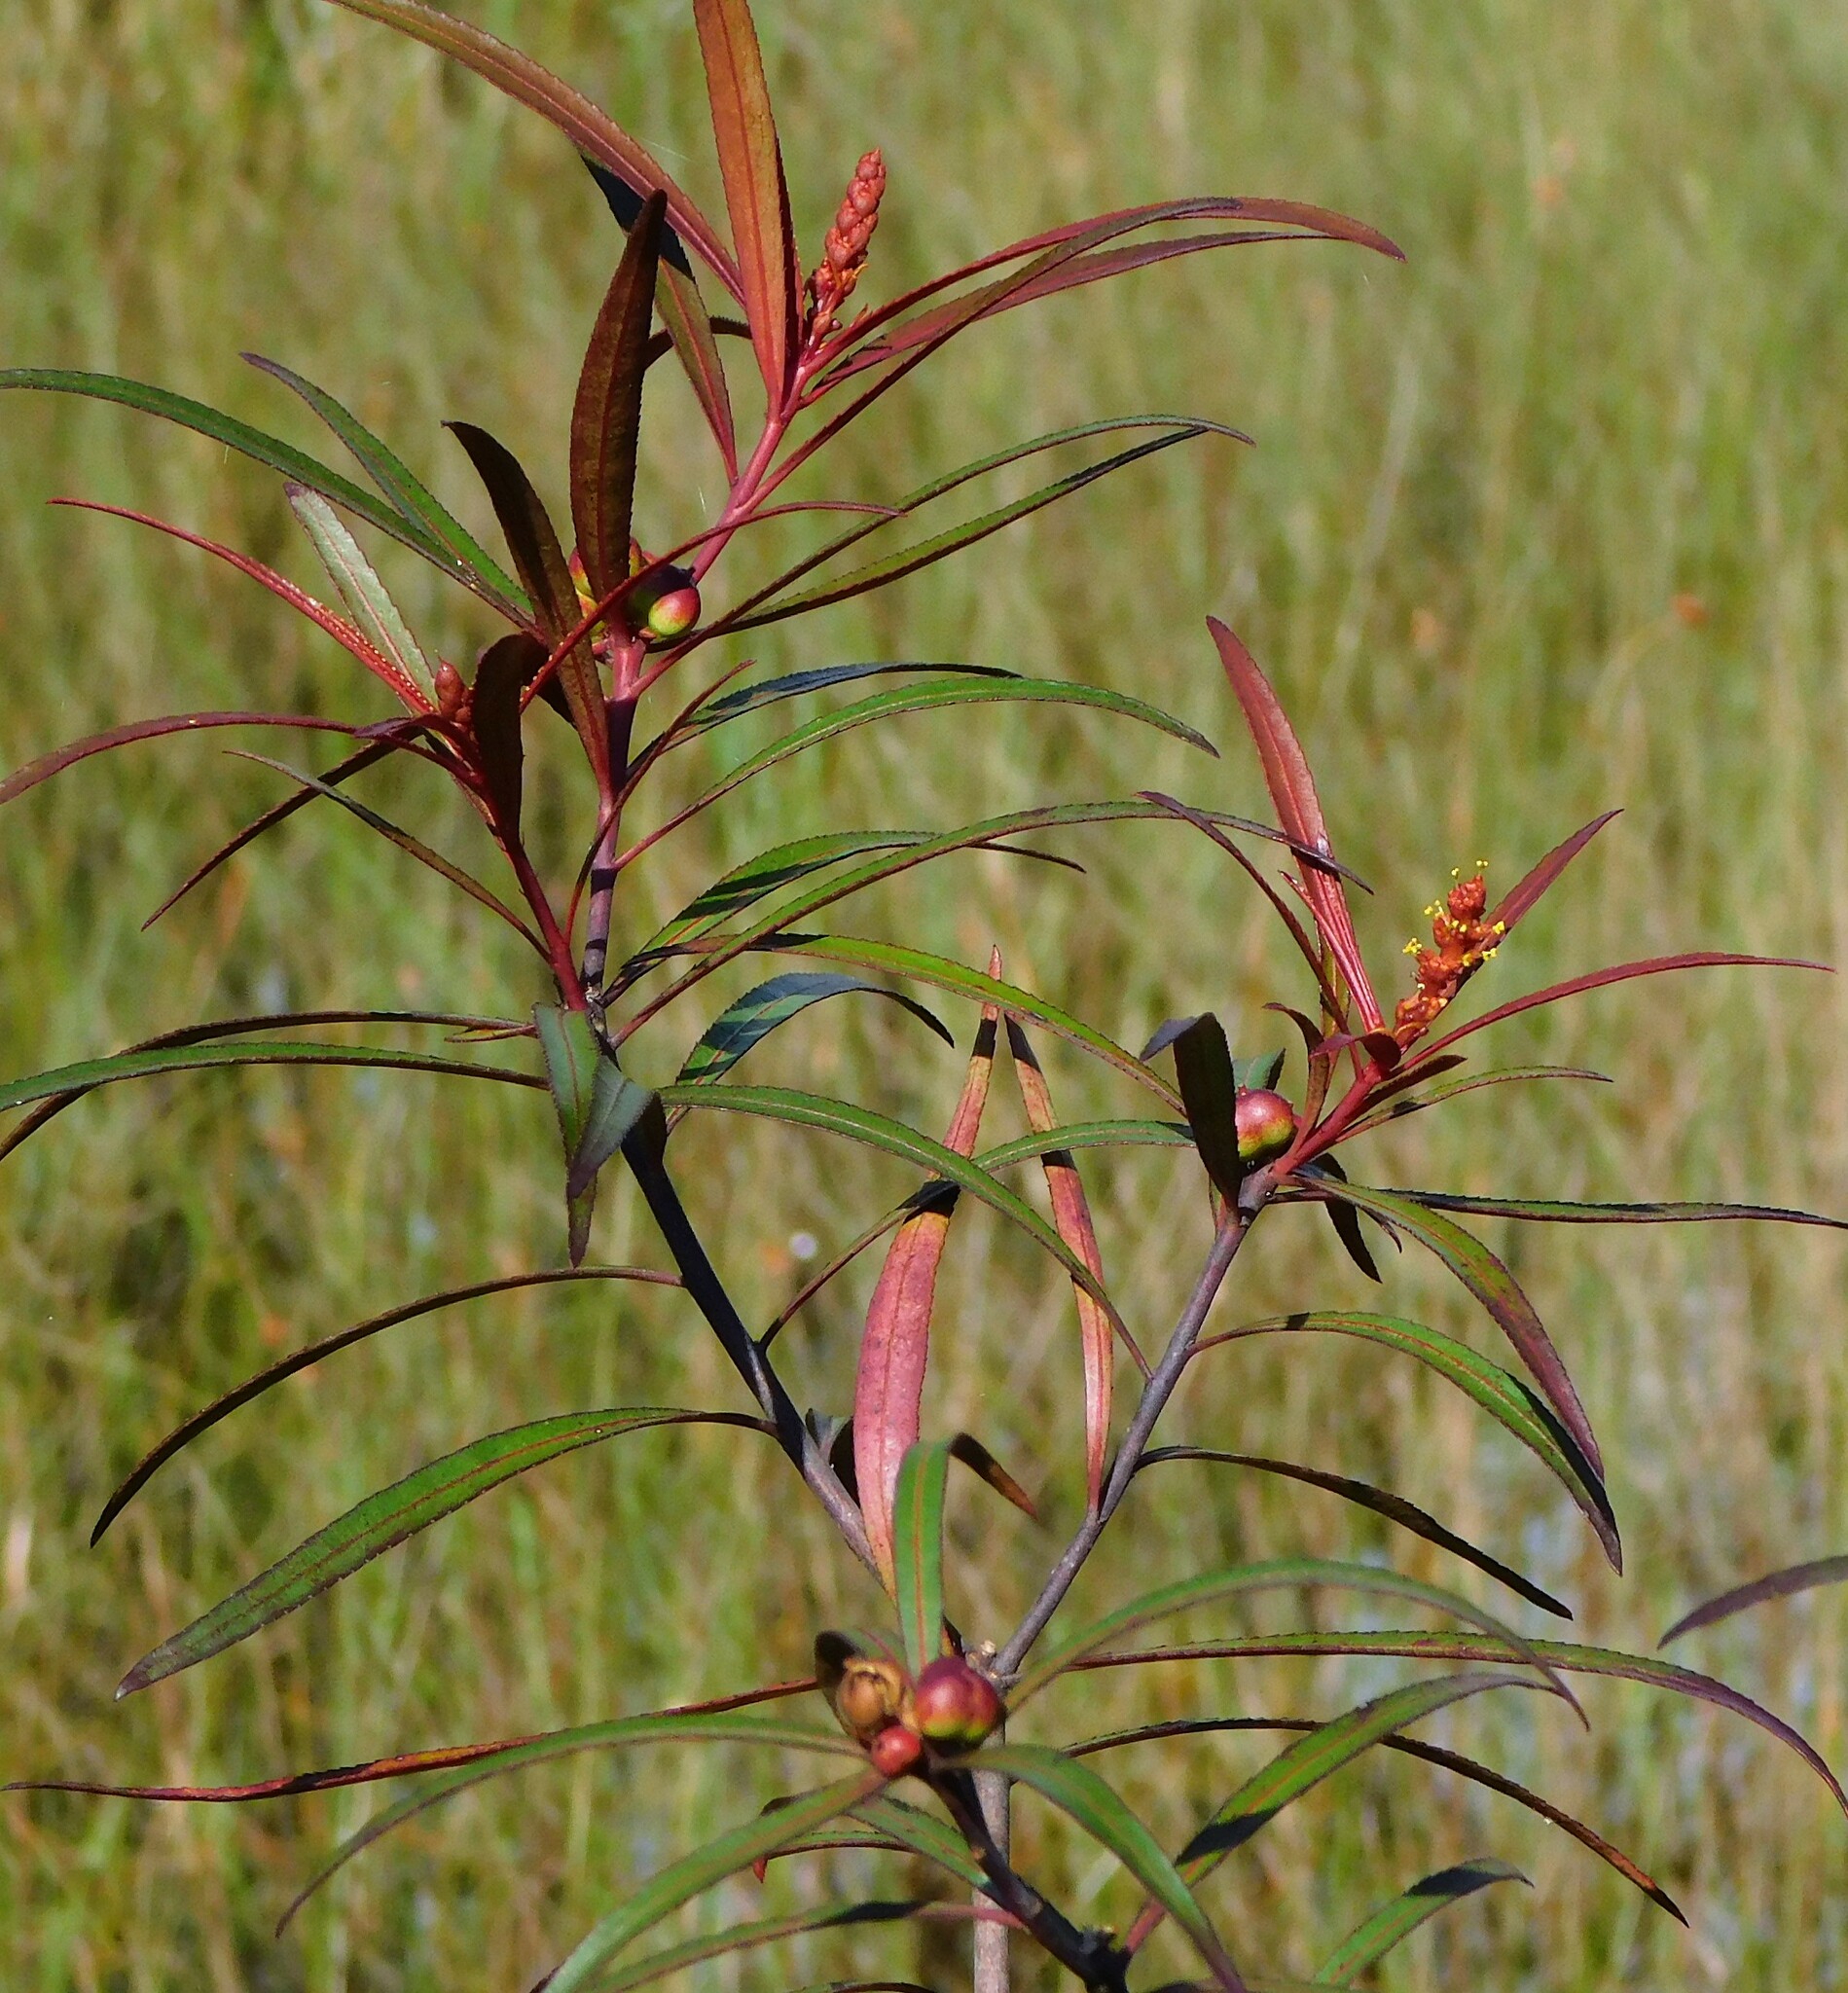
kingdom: Plantae
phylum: Tracheophyta
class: Magnoliopsida
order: Malpighiales
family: Euphorbiaceae
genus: Stillingia
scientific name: Stillingia aquatica
